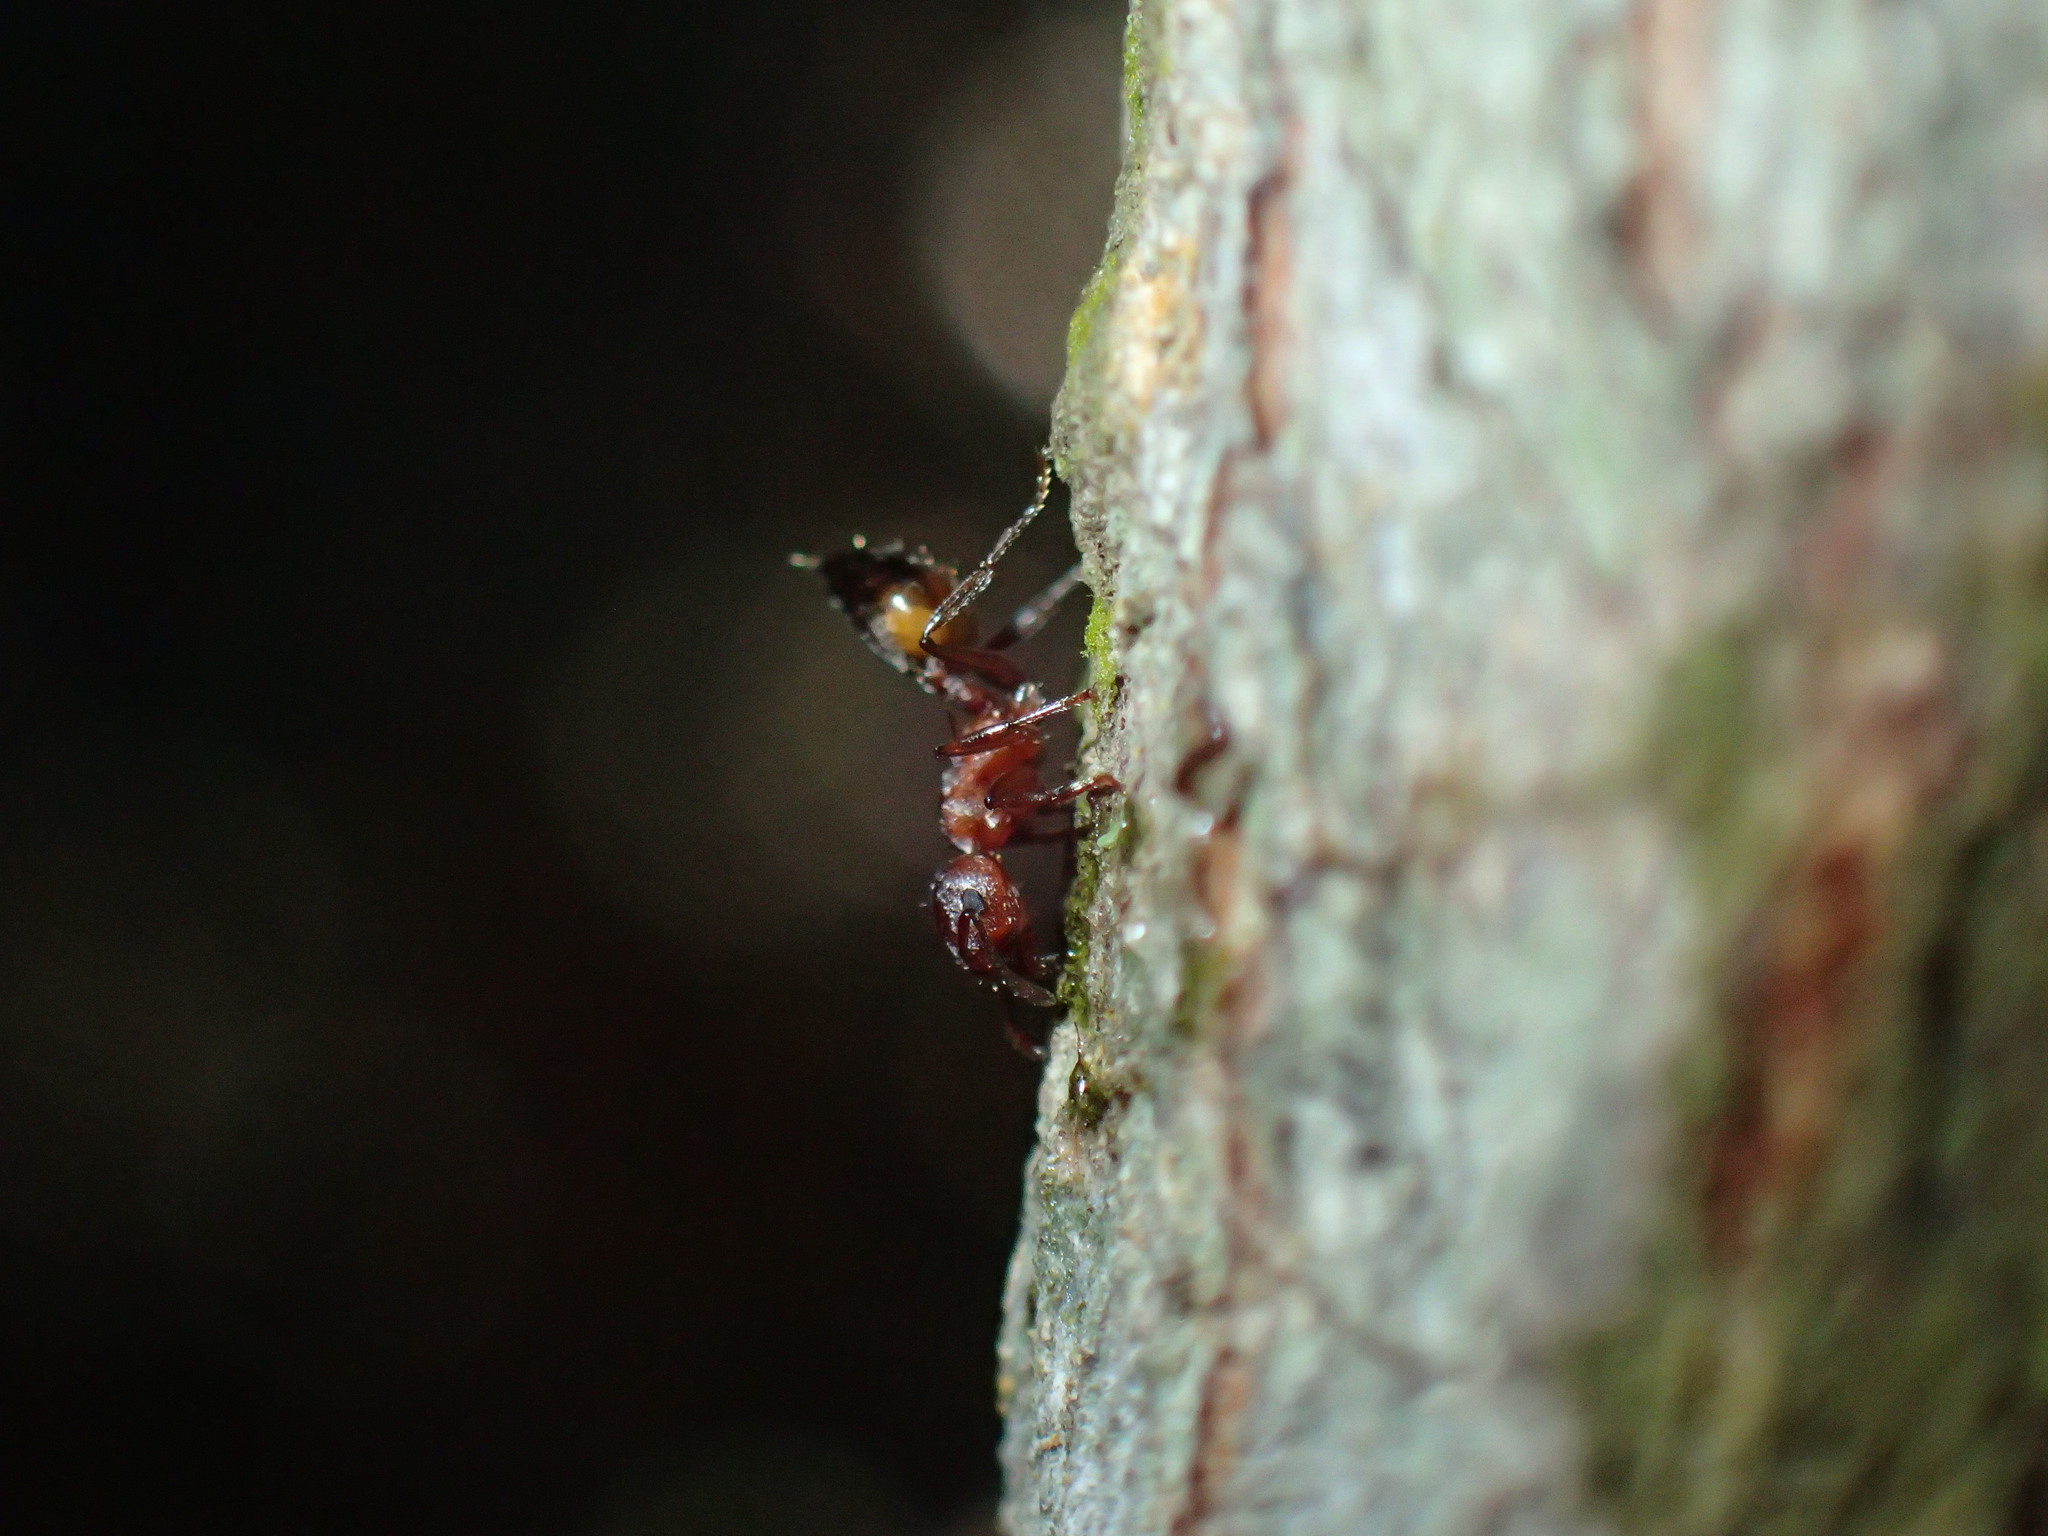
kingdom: Animalia
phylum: Arthropoda
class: Insecta
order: Hymenoptera
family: Formicidae
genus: Crematogaster
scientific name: Crematogaster castanea
